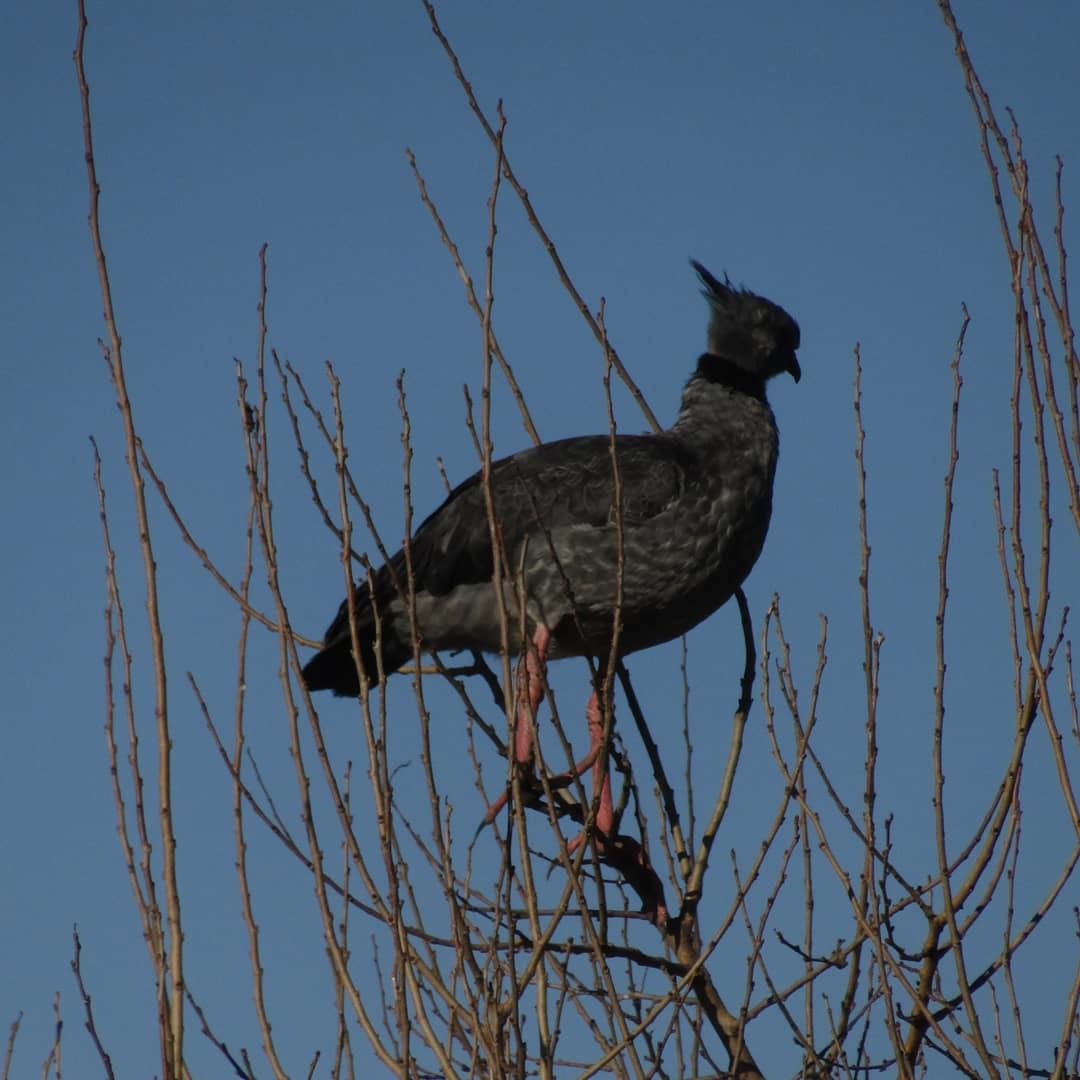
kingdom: Animalia
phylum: Chordata
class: Aves
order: Anseriformes
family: Anhimidae
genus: Chauna
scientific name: Chauna torquata
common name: Southern screamer
